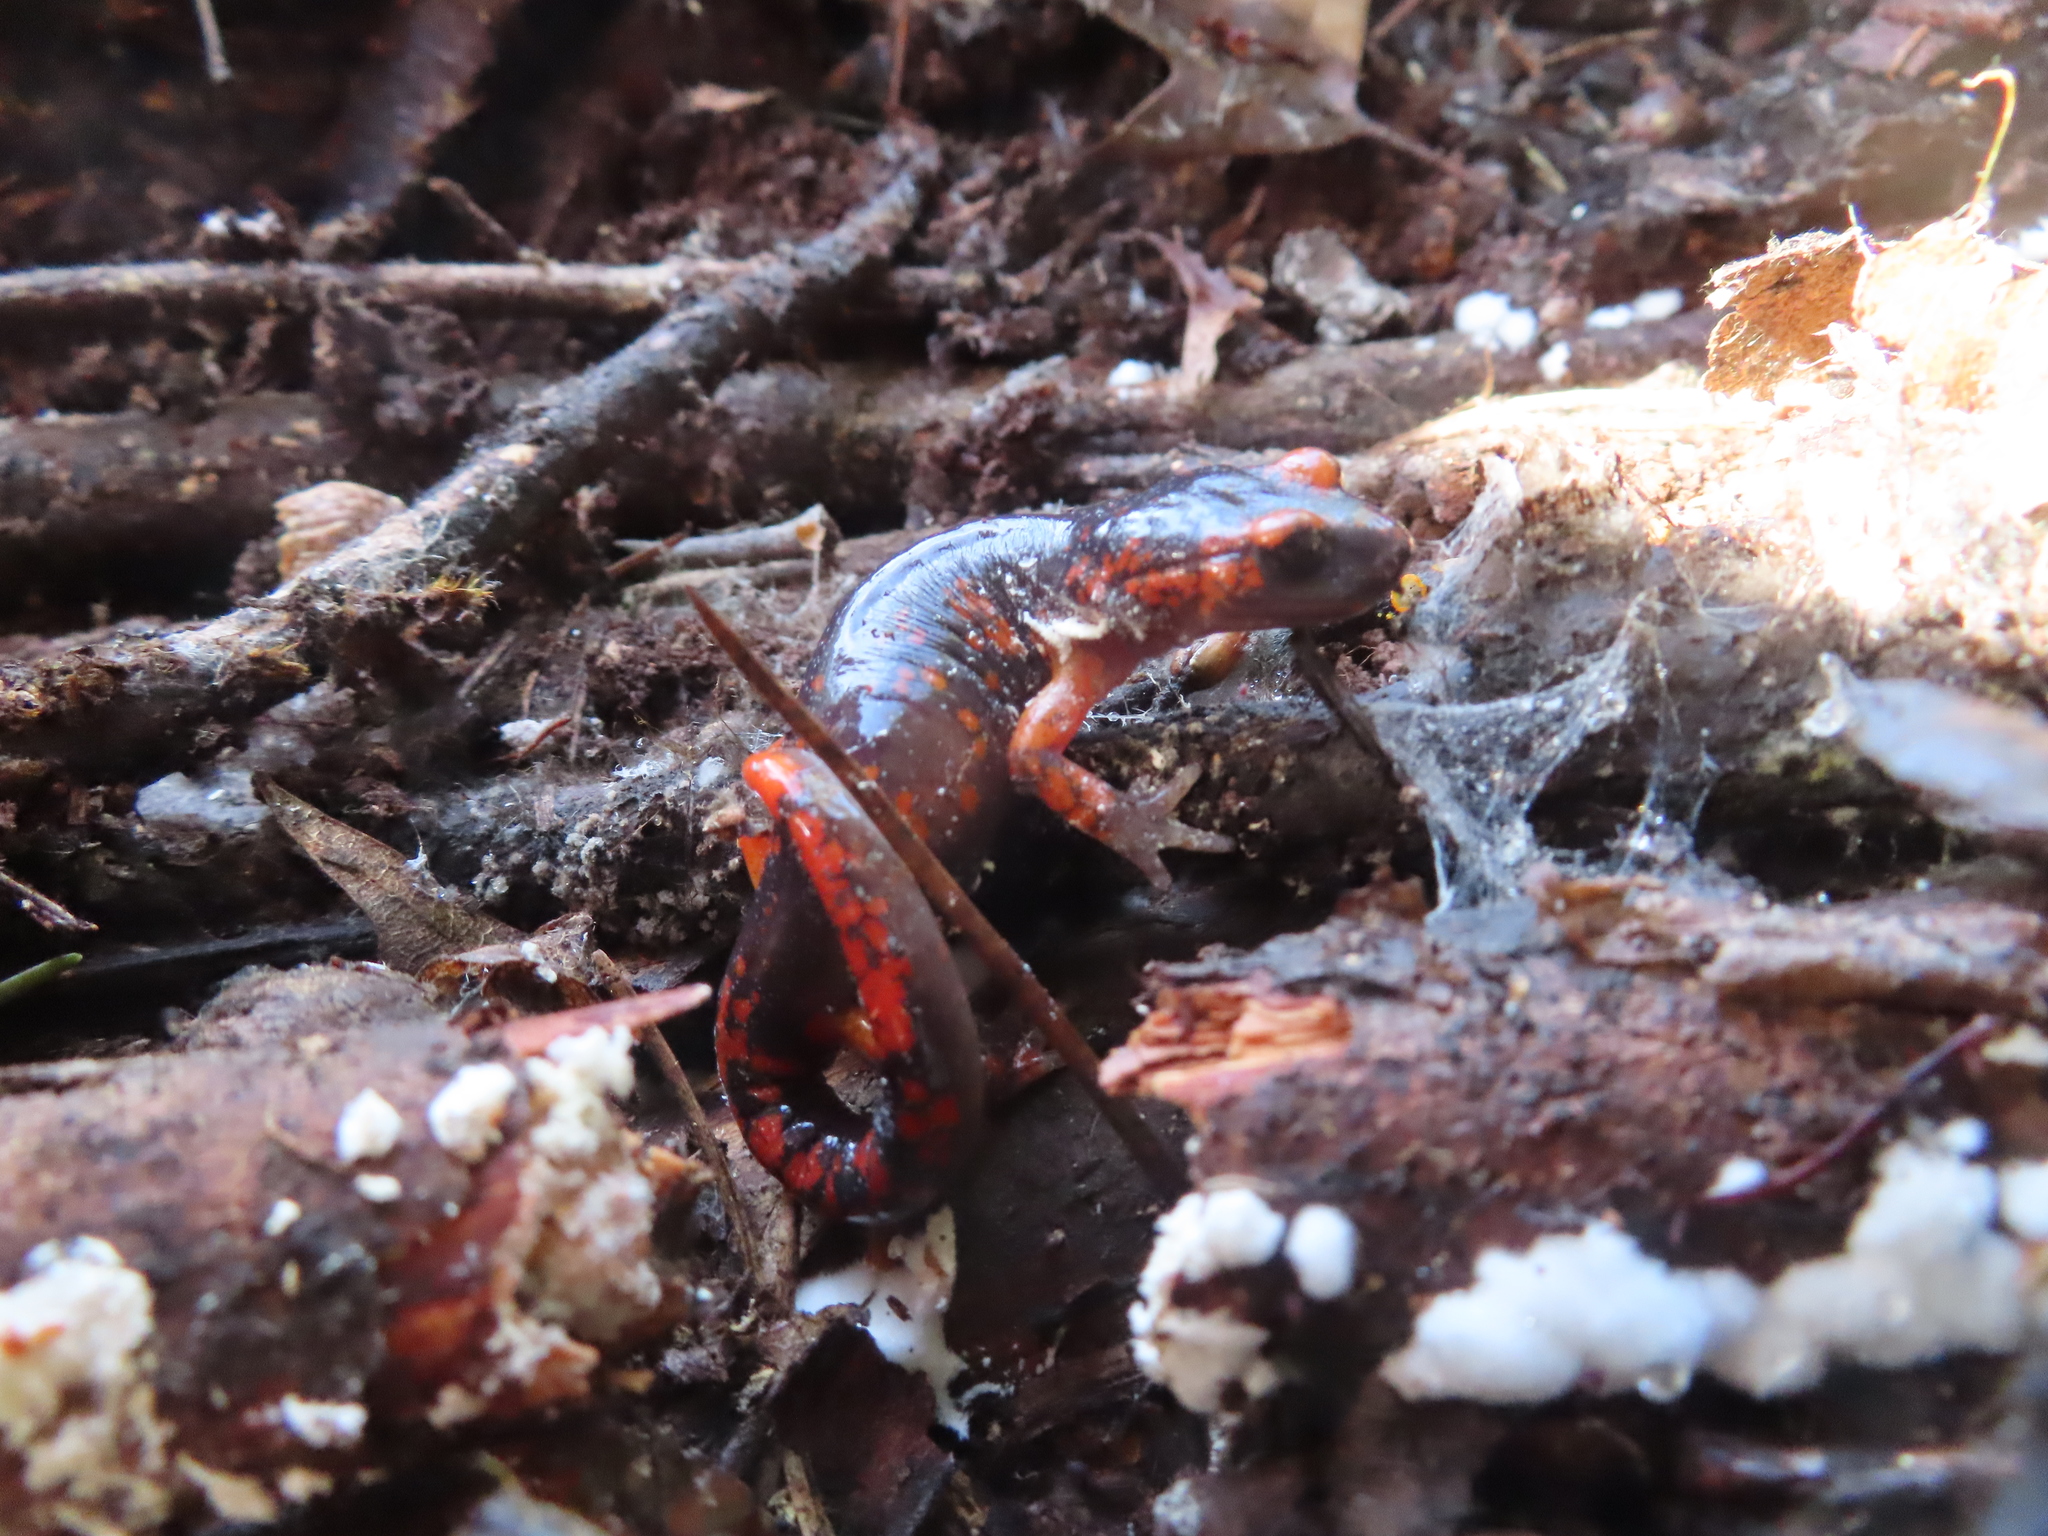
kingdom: Animalia
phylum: Chordata
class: Amphibia
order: Caudata
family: Plethodontidae
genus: Ensatina
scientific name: Ensatina eschscholtzii
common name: Ensatina
